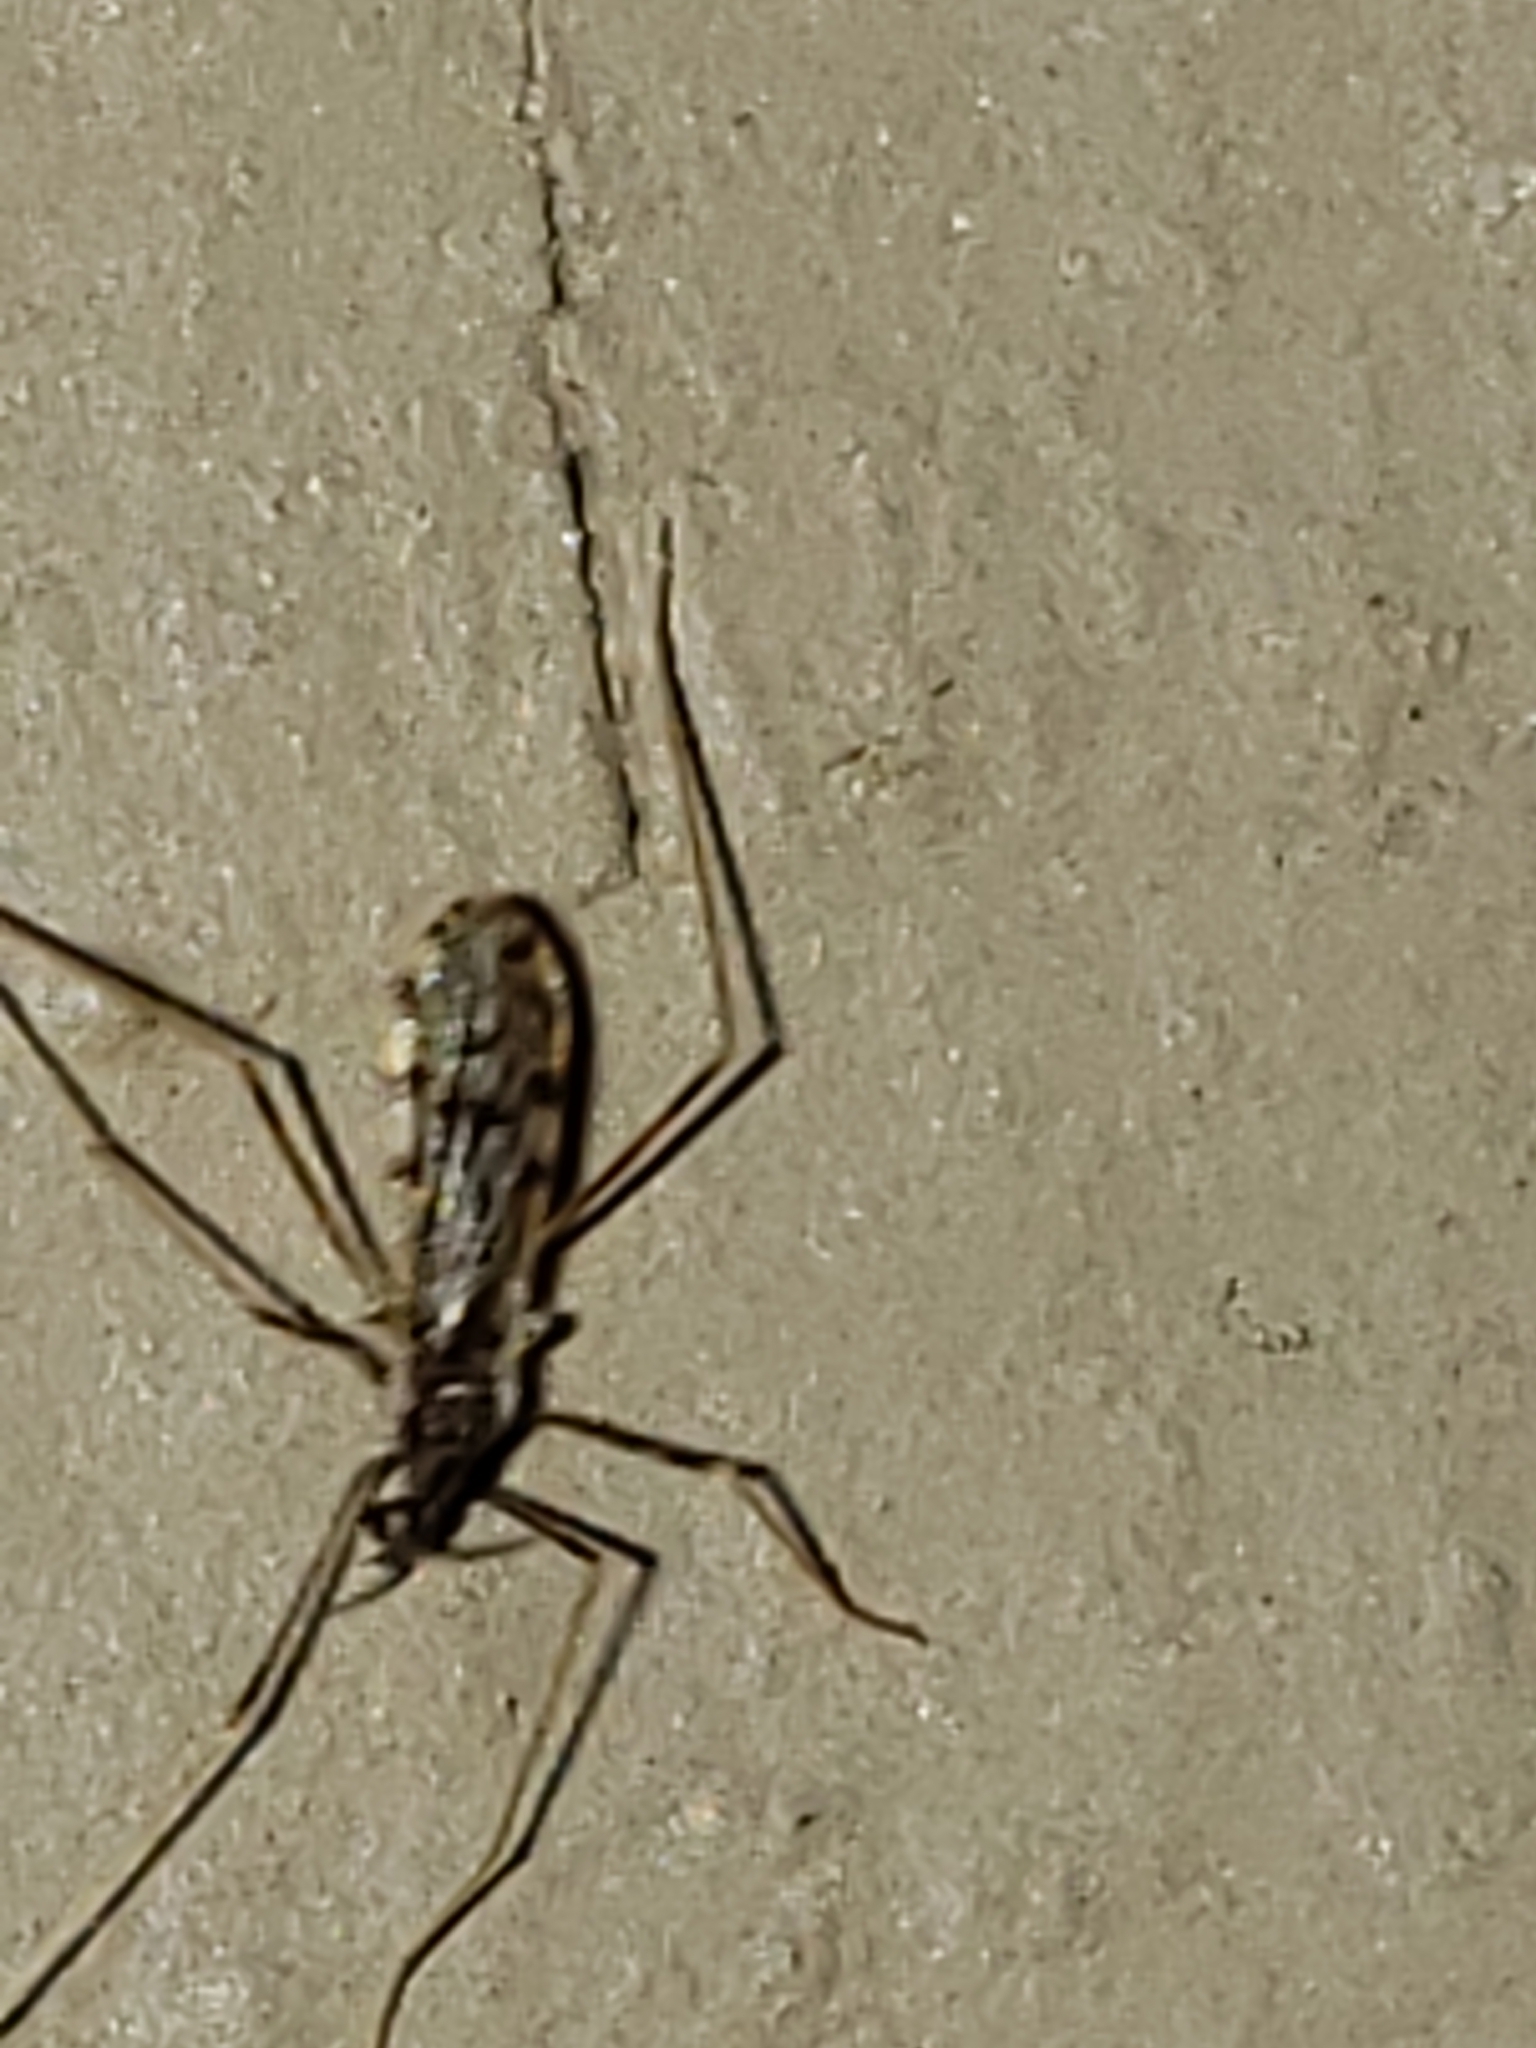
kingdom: Animalia
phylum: Arthropoda
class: Insecta
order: Diptera
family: Limoniidae
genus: Erioptera
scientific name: Erioptera parva
